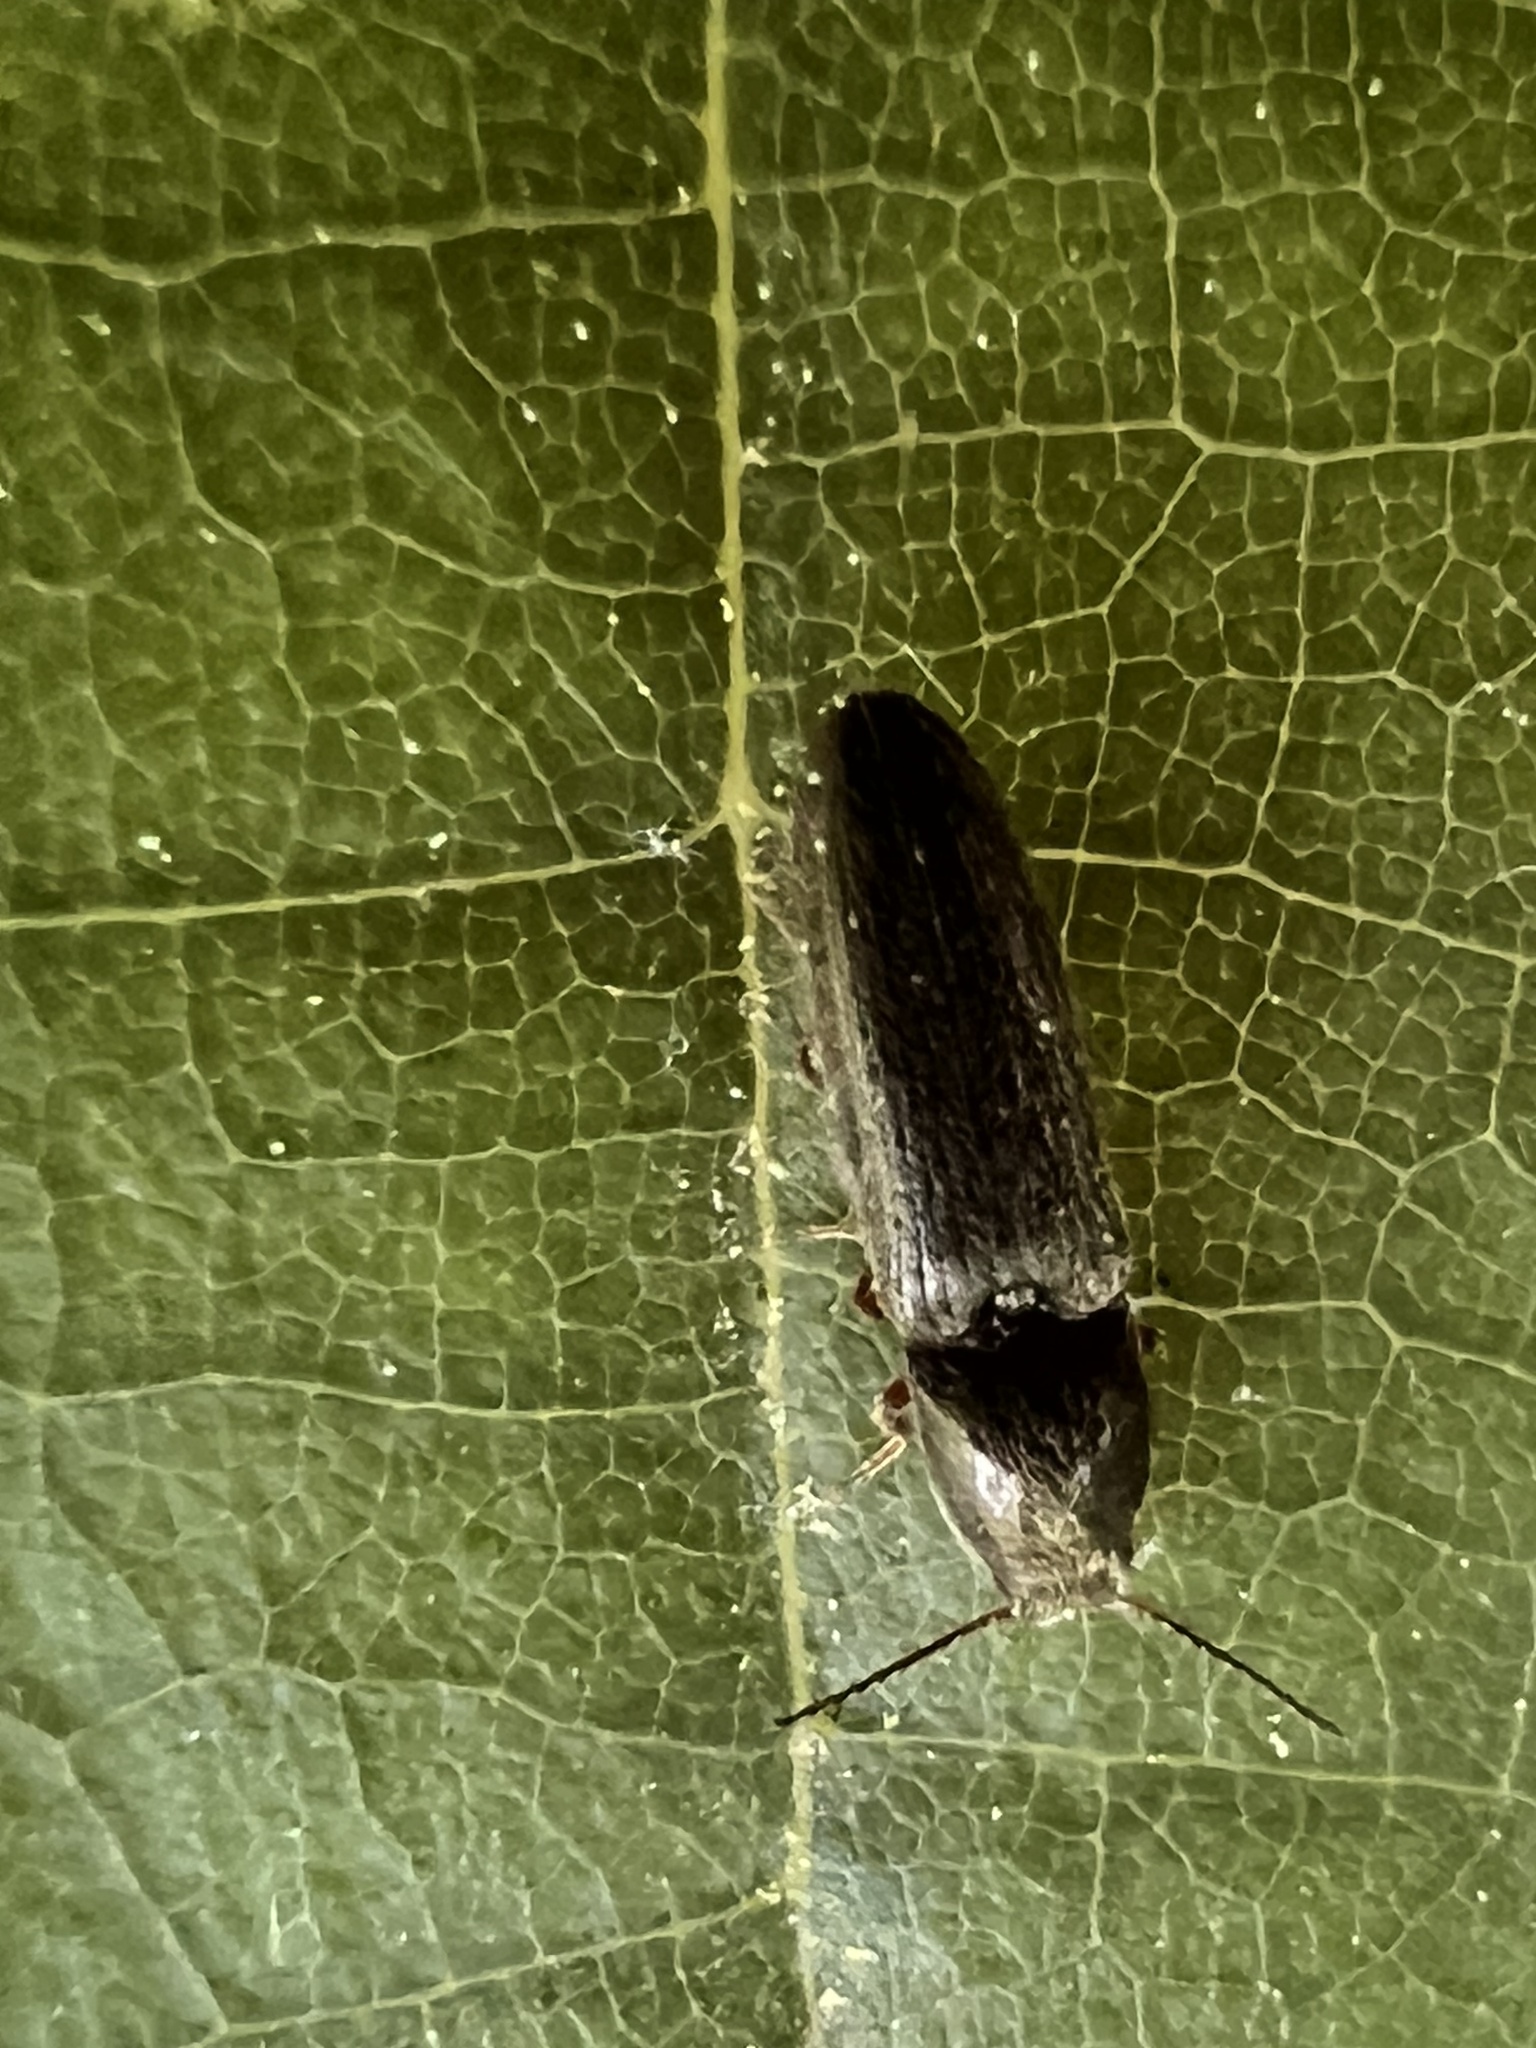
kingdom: Animalia
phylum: Arthropoda
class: Insecta
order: Coleoptera
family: Elateridae
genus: Limonius
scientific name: Limonius quercinus
